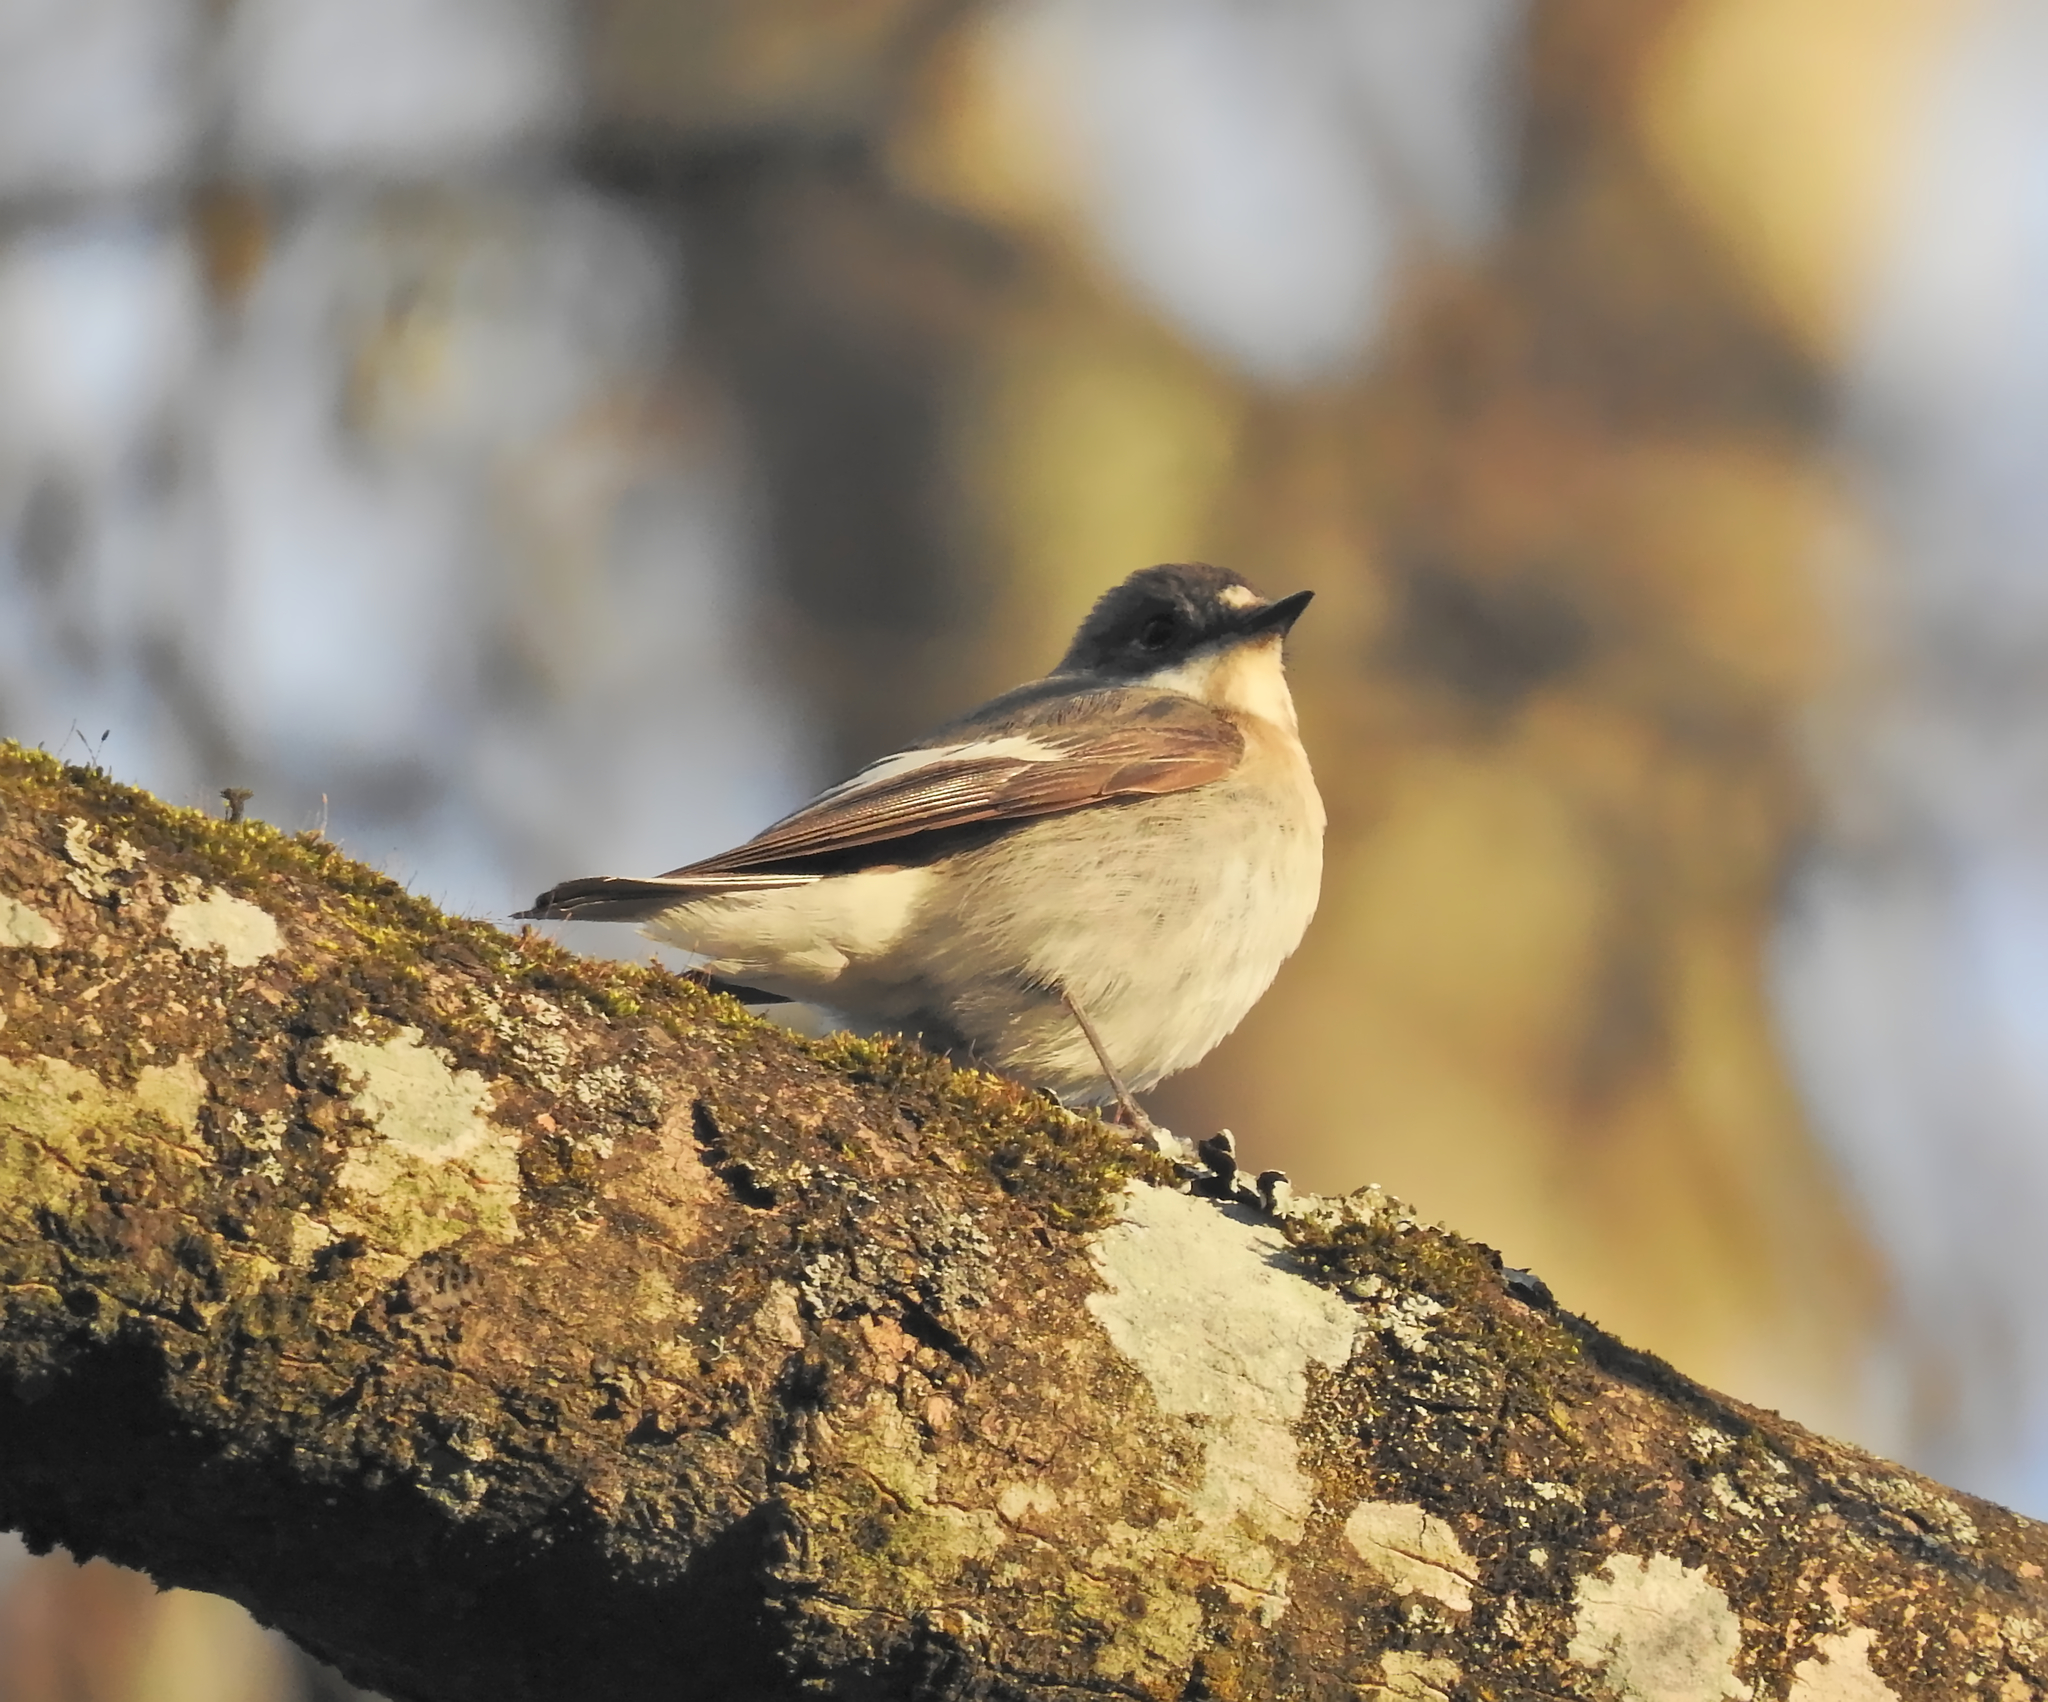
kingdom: Animalia
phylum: Chordata
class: Aves
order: Passeriformes
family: Muscicapidae
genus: Ficedula
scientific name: Ficedula hypoleuca
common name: European pied flycatcher
